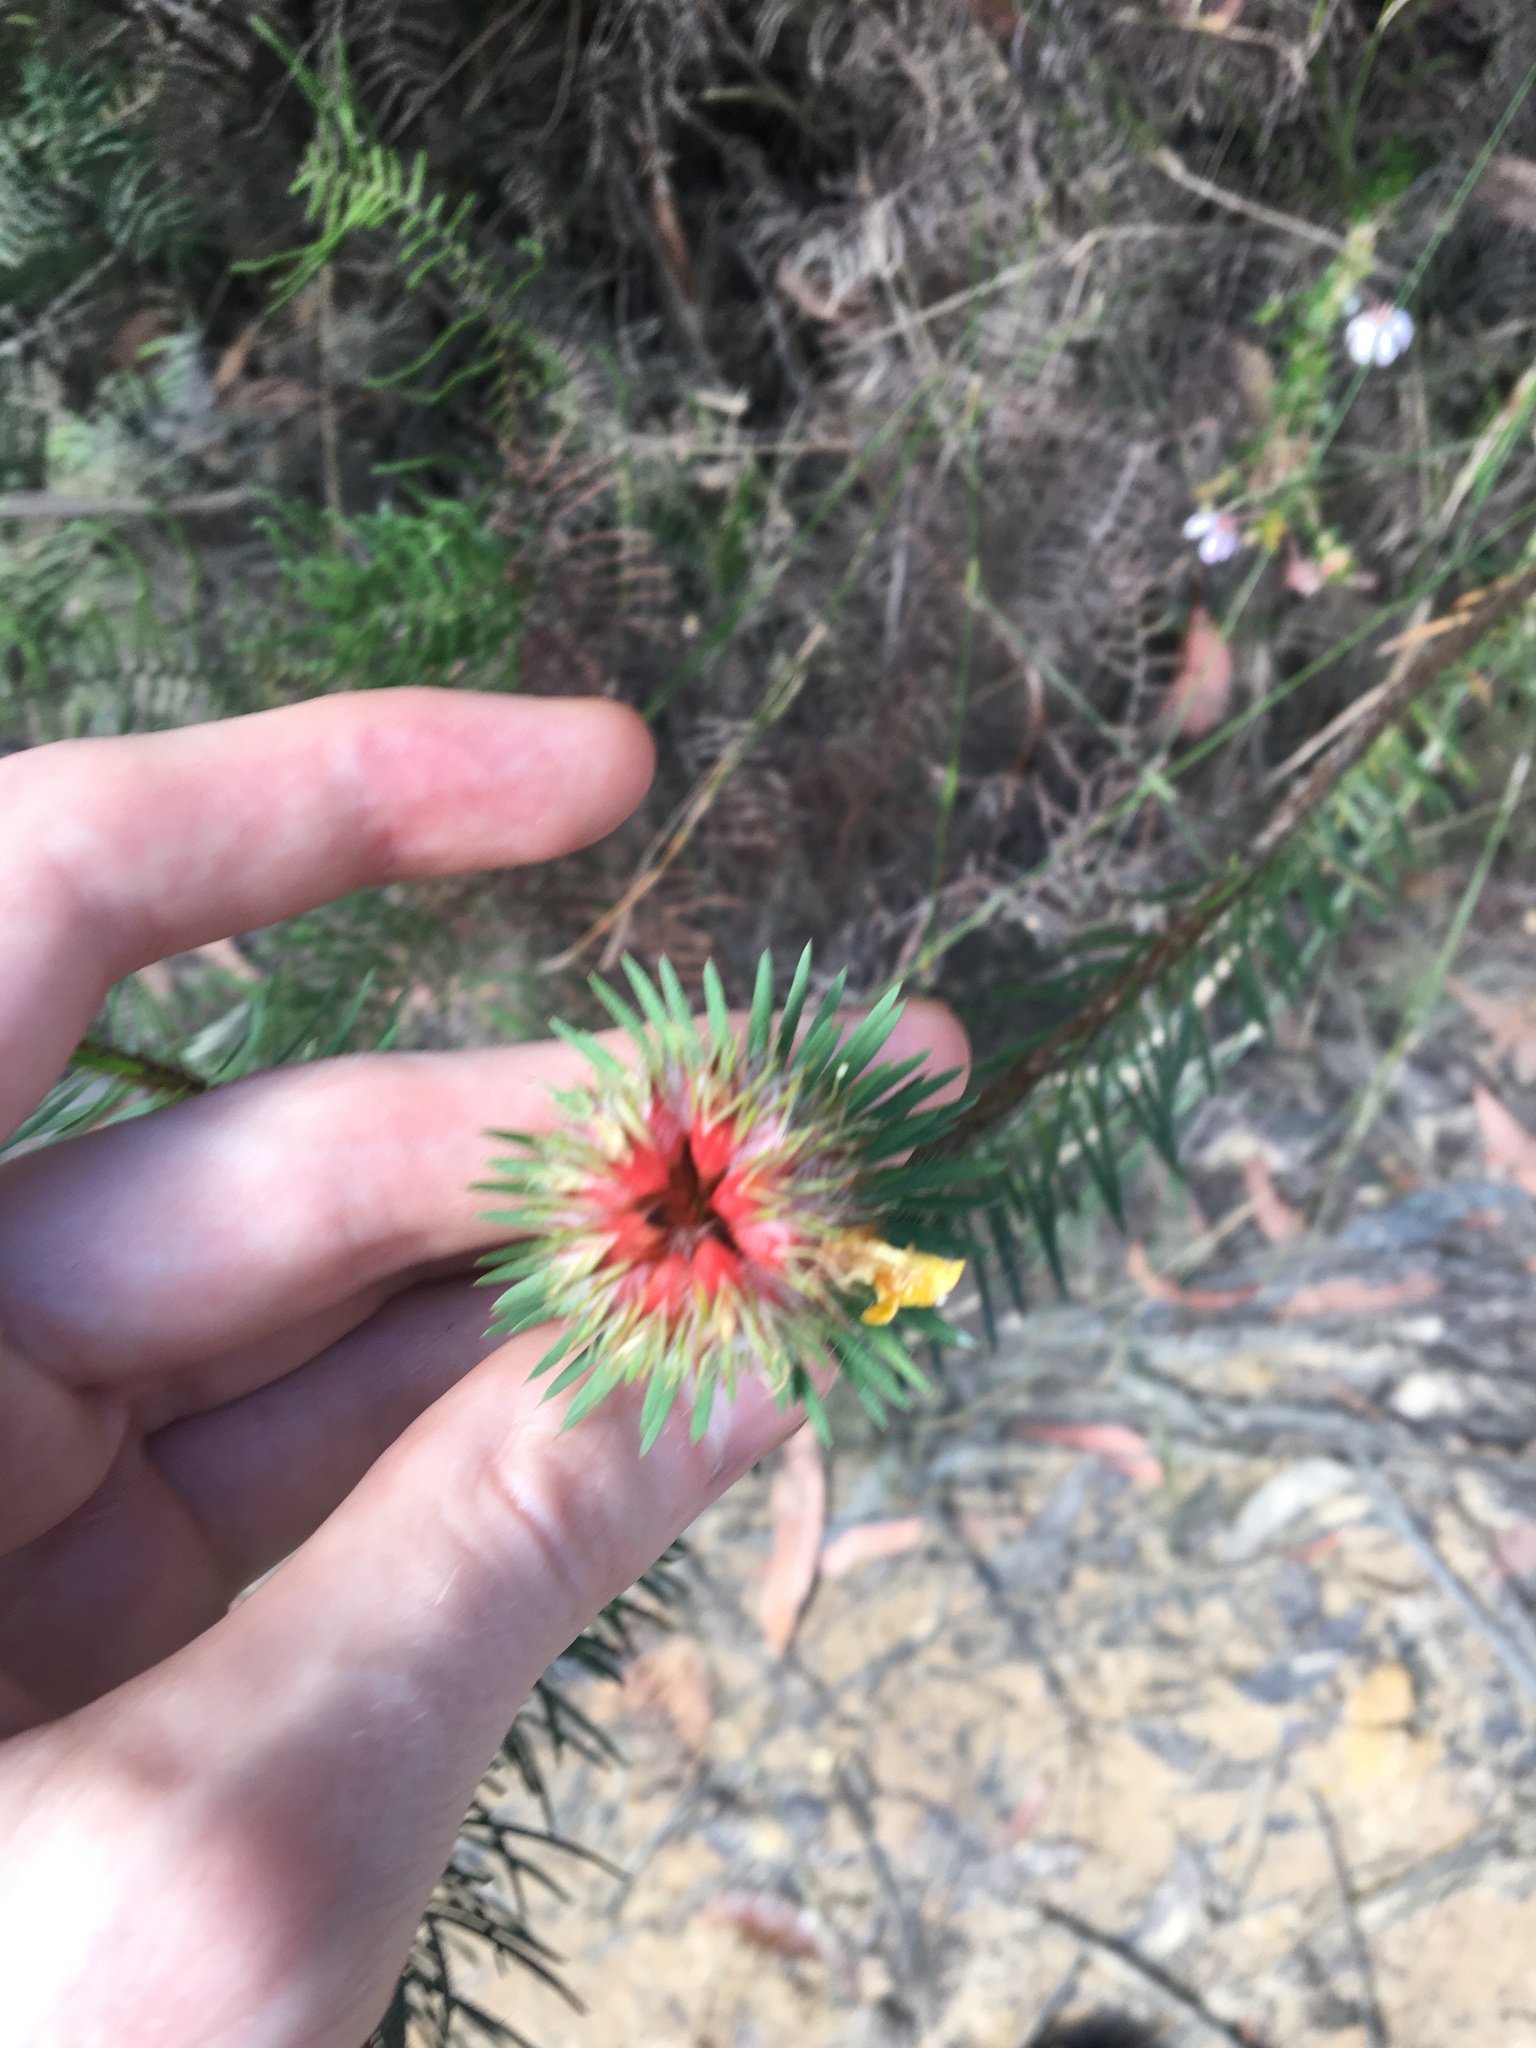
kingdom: Plantae
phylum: Tracheophyta
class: Magnoliopsida
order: Fabales
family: Fabaceae
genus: Pultenaea
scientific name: Pultenaea stipularis
